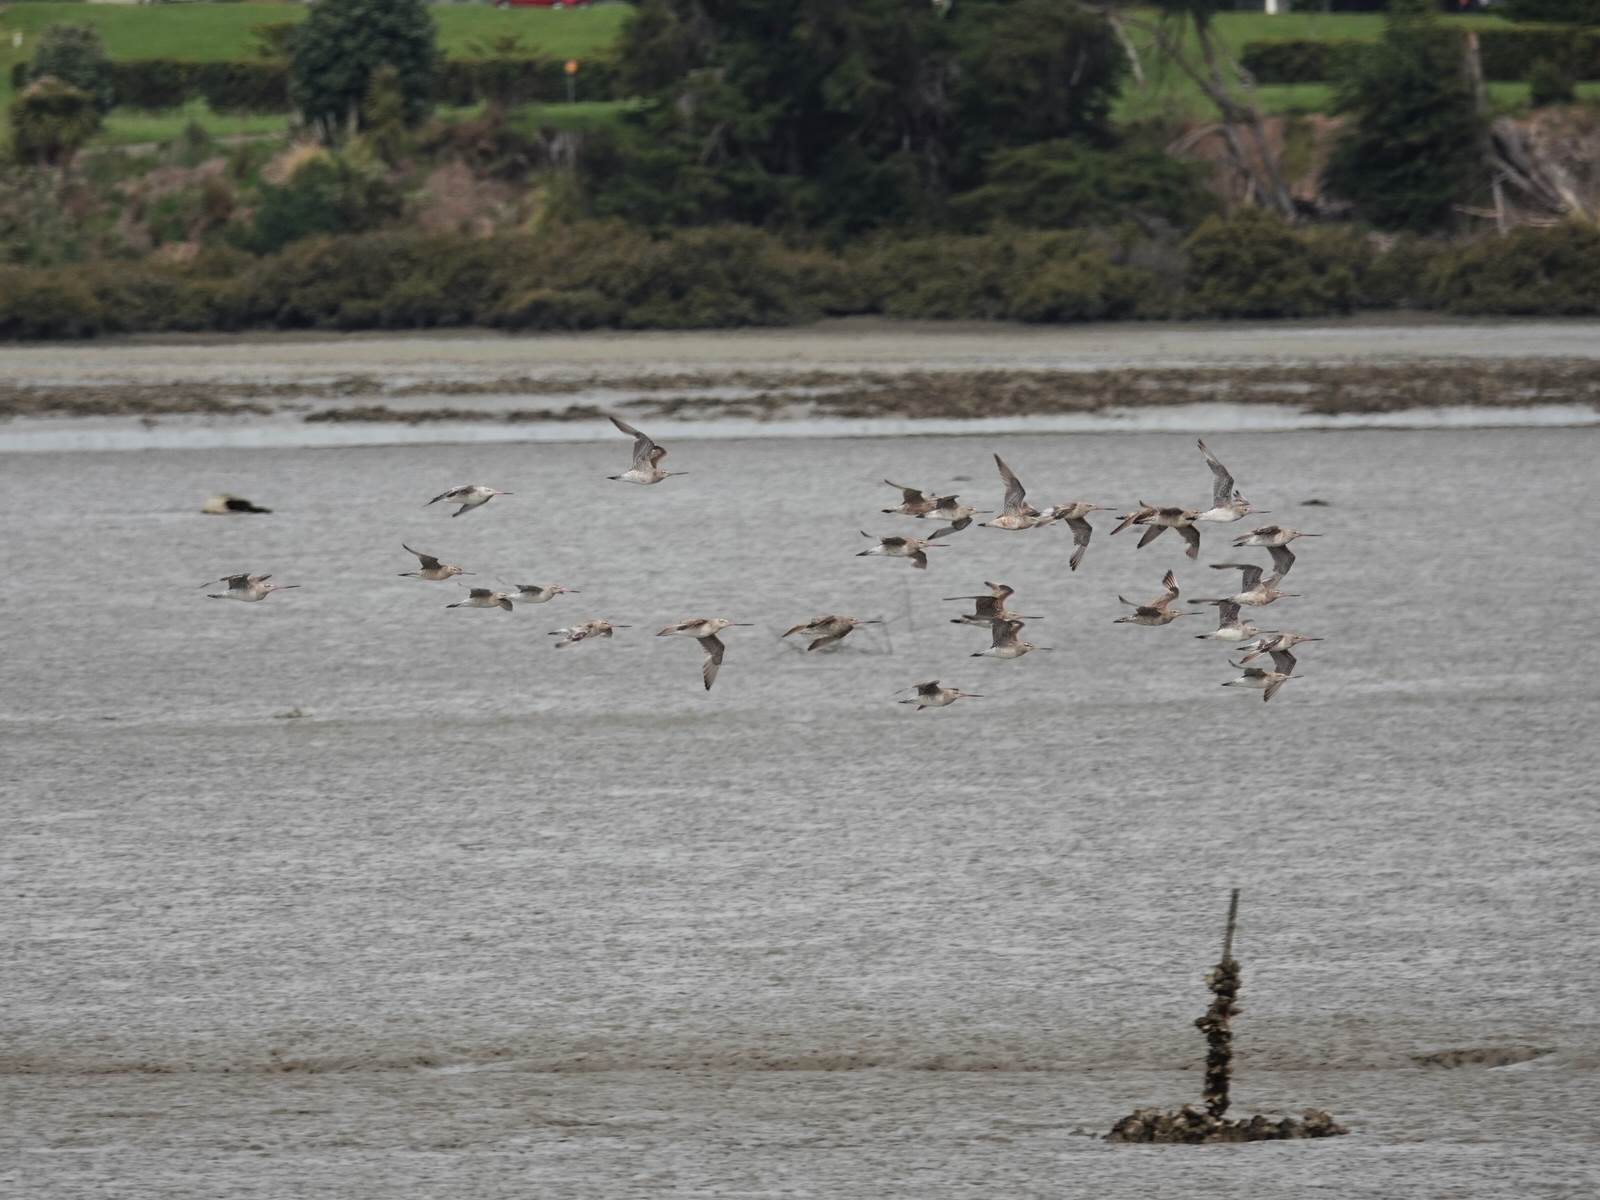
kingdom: Animalia
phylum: Chordata
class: Aves
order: Charadriiformes
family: Scolopacidae
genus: Limosa
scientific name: Limosa lapponica
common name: Bar-tailed godwit
